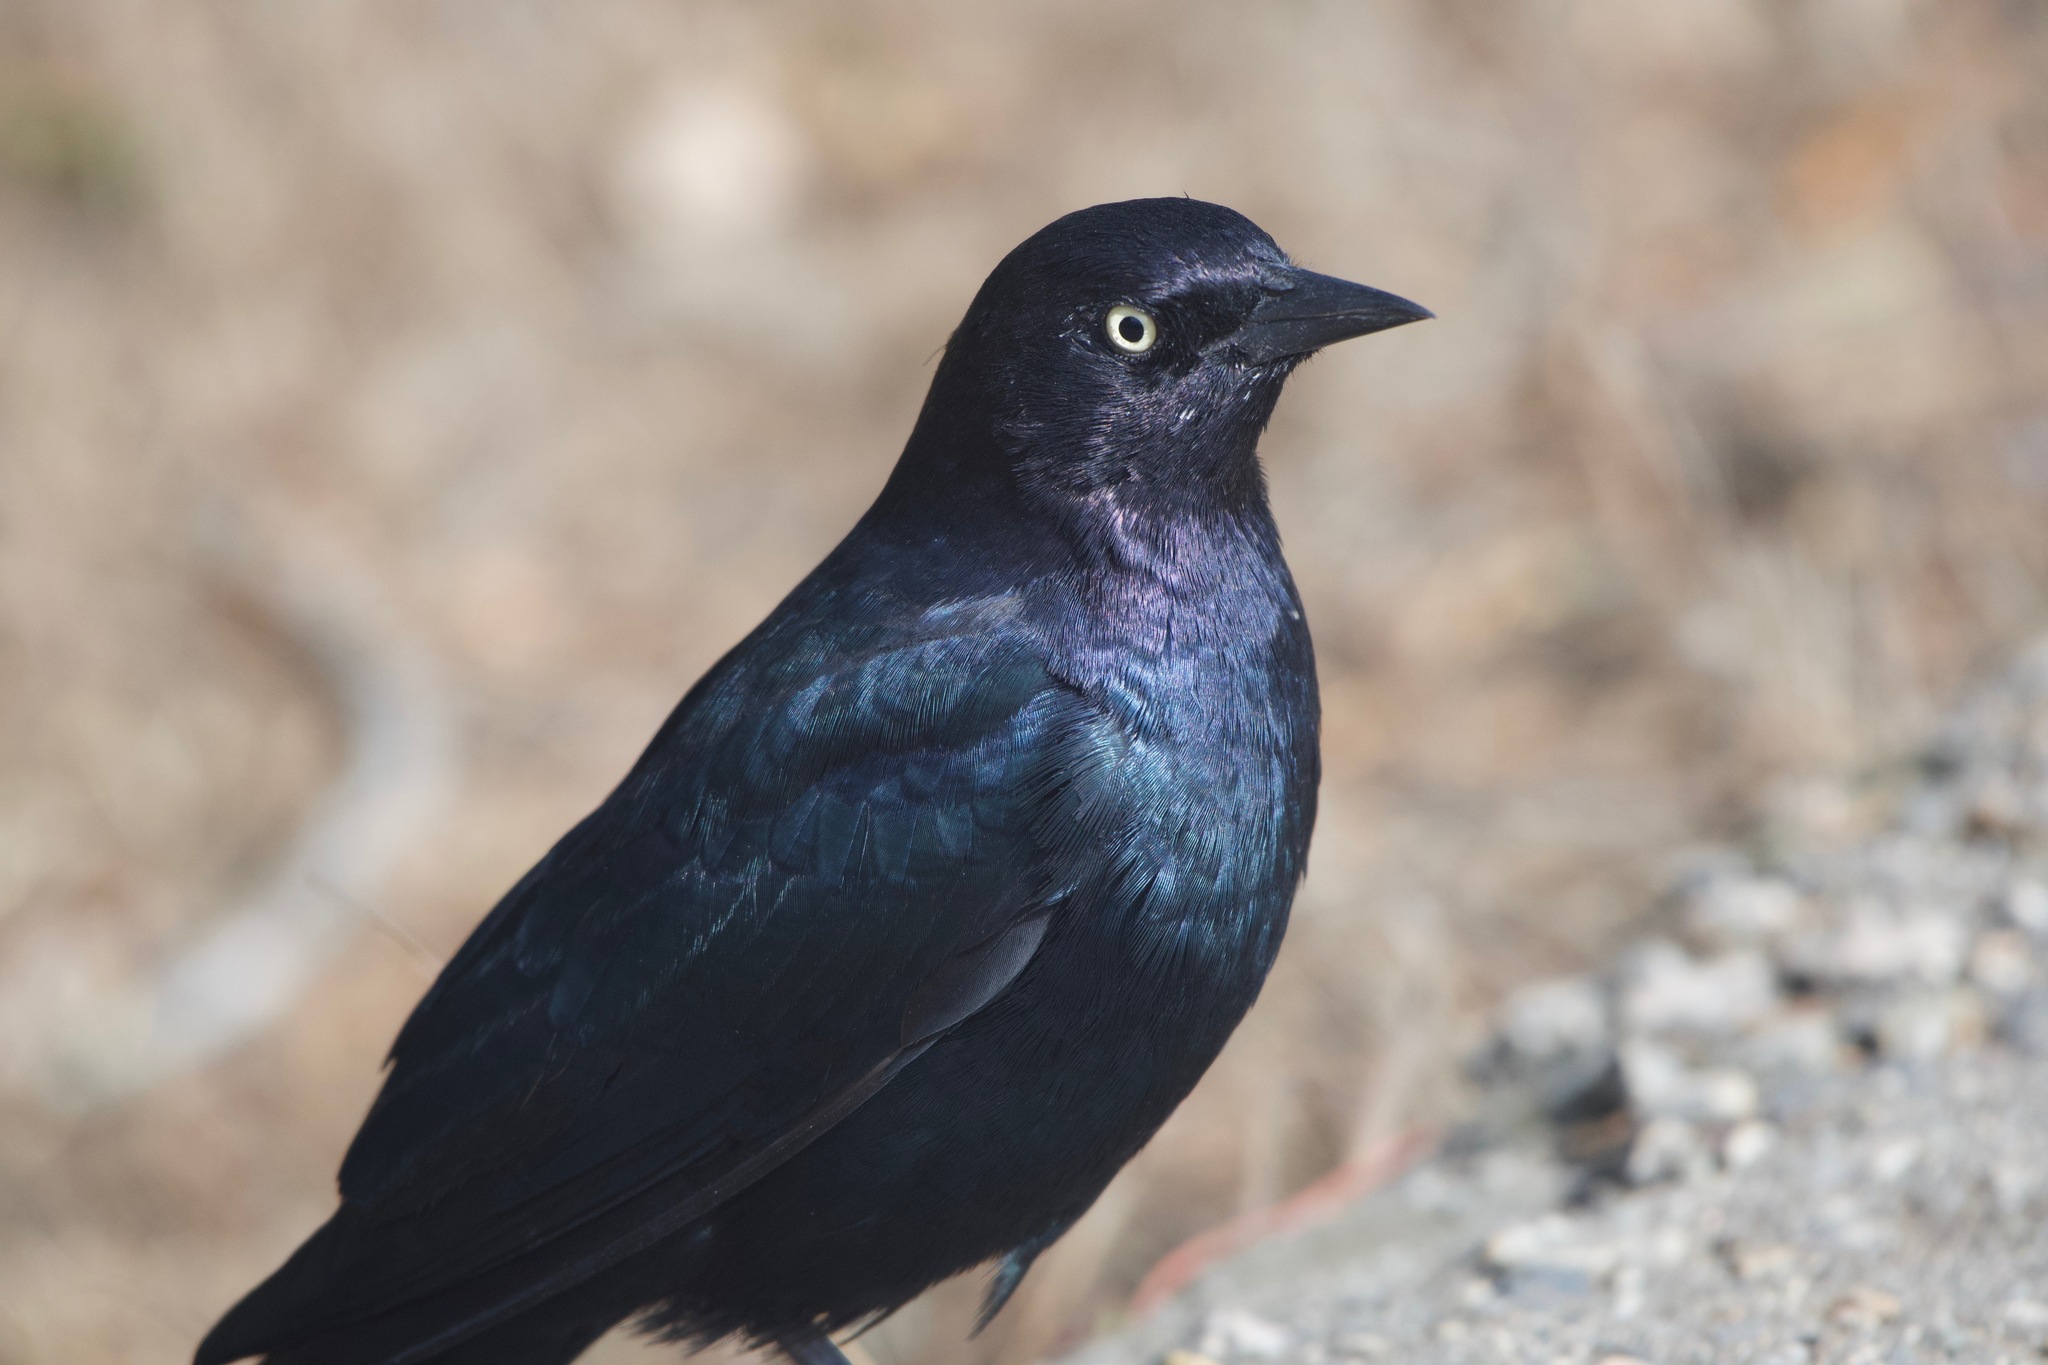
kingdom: Animalia
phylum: Chordata
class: Aves
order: Passeriformes
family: Icteridae
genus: Euphagus
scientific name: Euphagus cyanocephalus
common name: Brewer's blackbird
